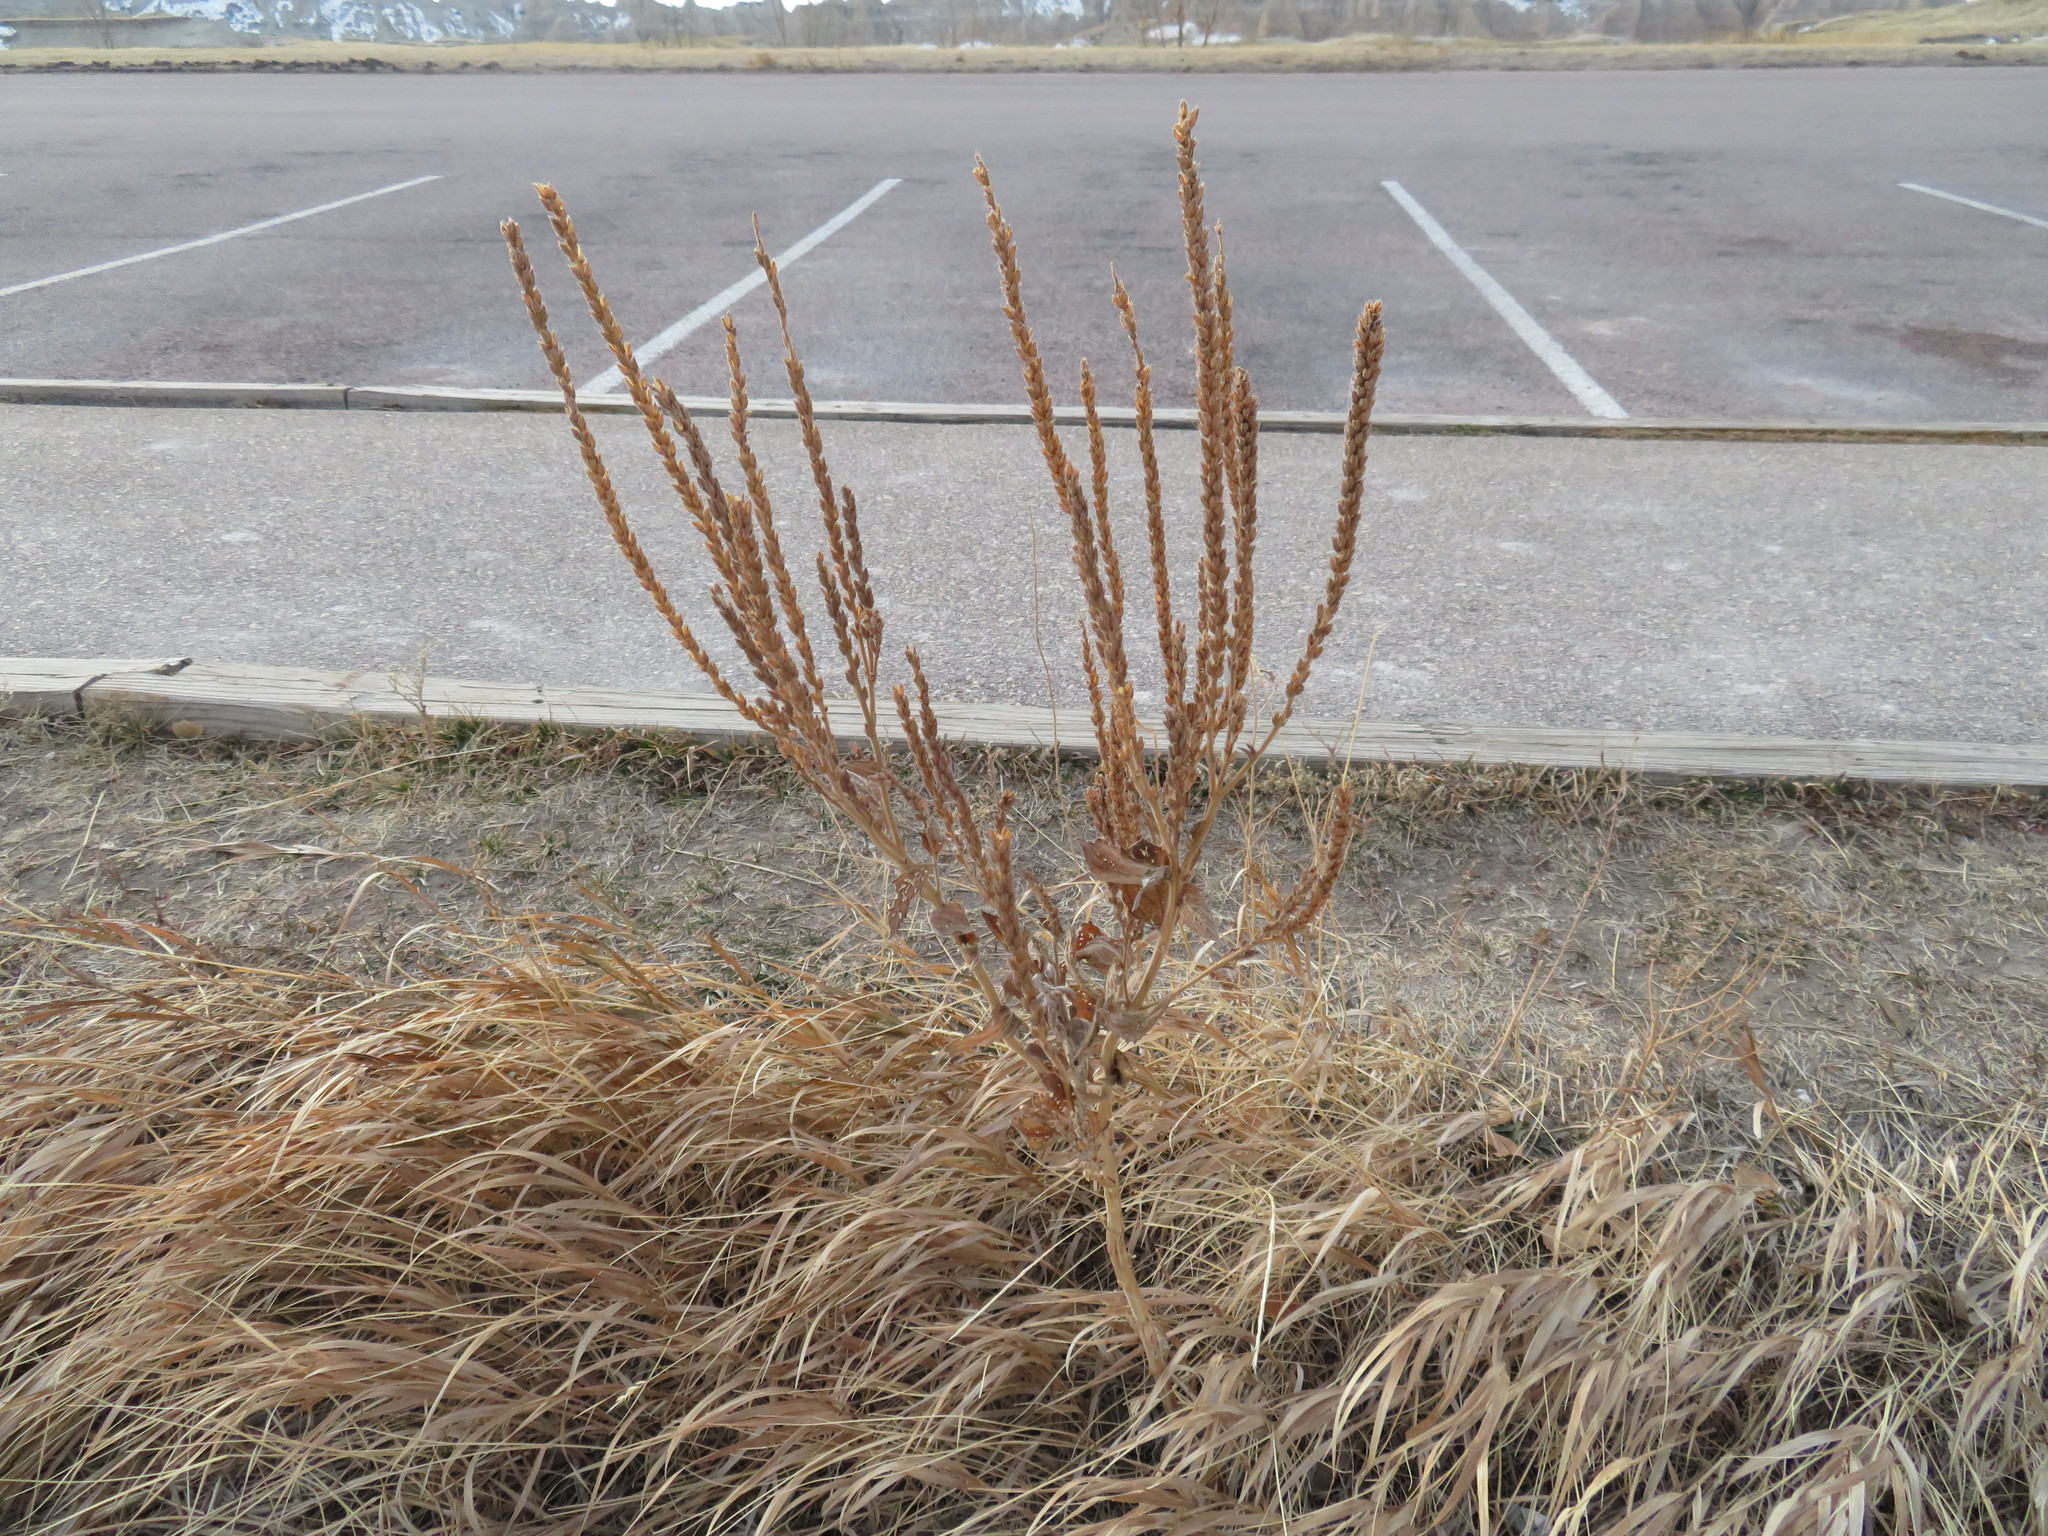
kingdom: Plantae
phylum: Tracheophyta
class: Magnoliopsida
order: Lamiales
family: Verbenaceae
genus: Verbena
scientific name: Verbena stricta
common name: Hoary vervain
